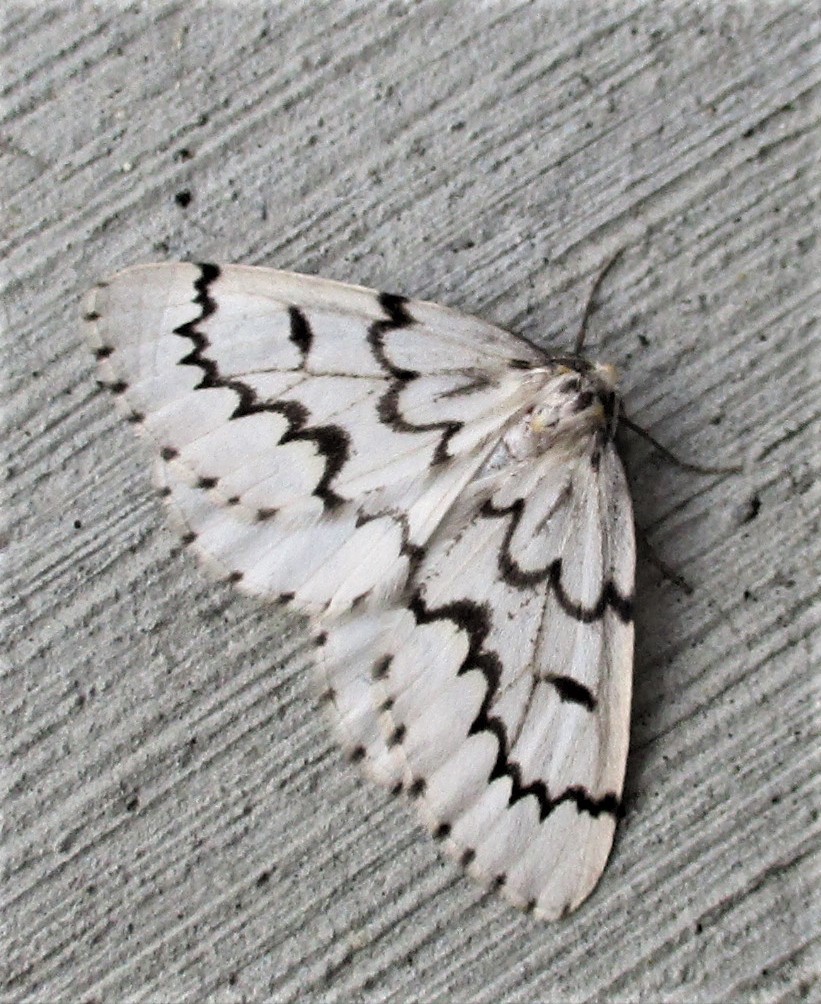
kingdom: Animalia
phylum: Arthropoda
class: Insecta
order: Lepidoptera
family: Geometridae
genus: Nepytia
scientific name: Nepytia phantasmaria
